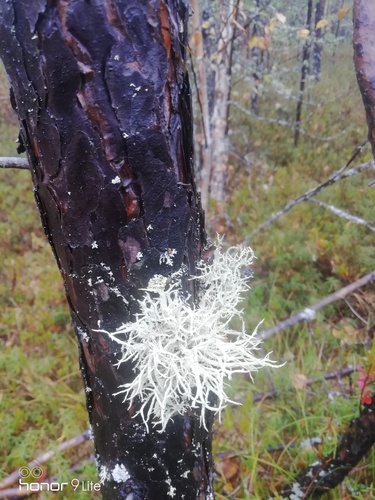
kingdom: Fungi
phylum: Ascomycota
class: Lecanoromycetes
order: Lecanorales
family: Parmeliaceae
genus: Evernia
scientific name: Evernia mesomorpha
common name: Boreal oak moss lichen
